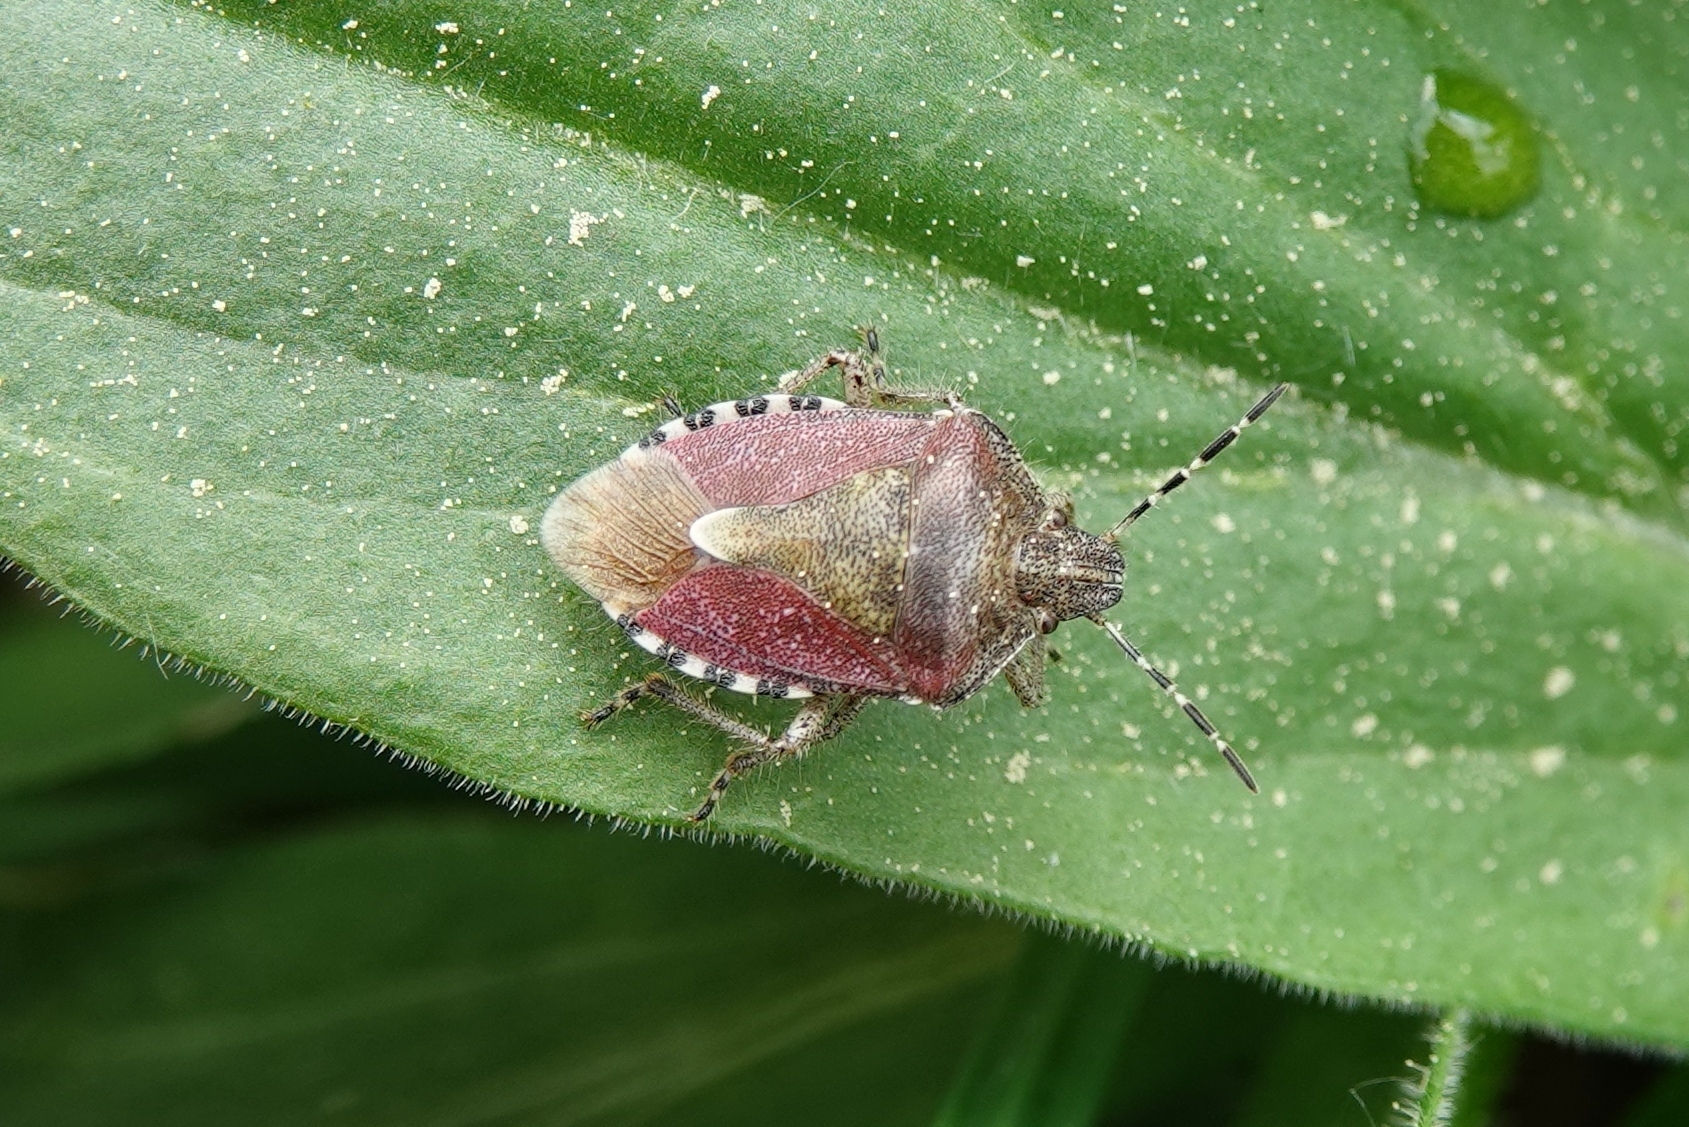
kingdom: Animalia
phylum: Arthropoda
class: Insecta
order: Hemiptera
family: Pentatomidae
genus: Dolycoris
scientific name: Dolycoris baccarum
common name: Sloe bug
